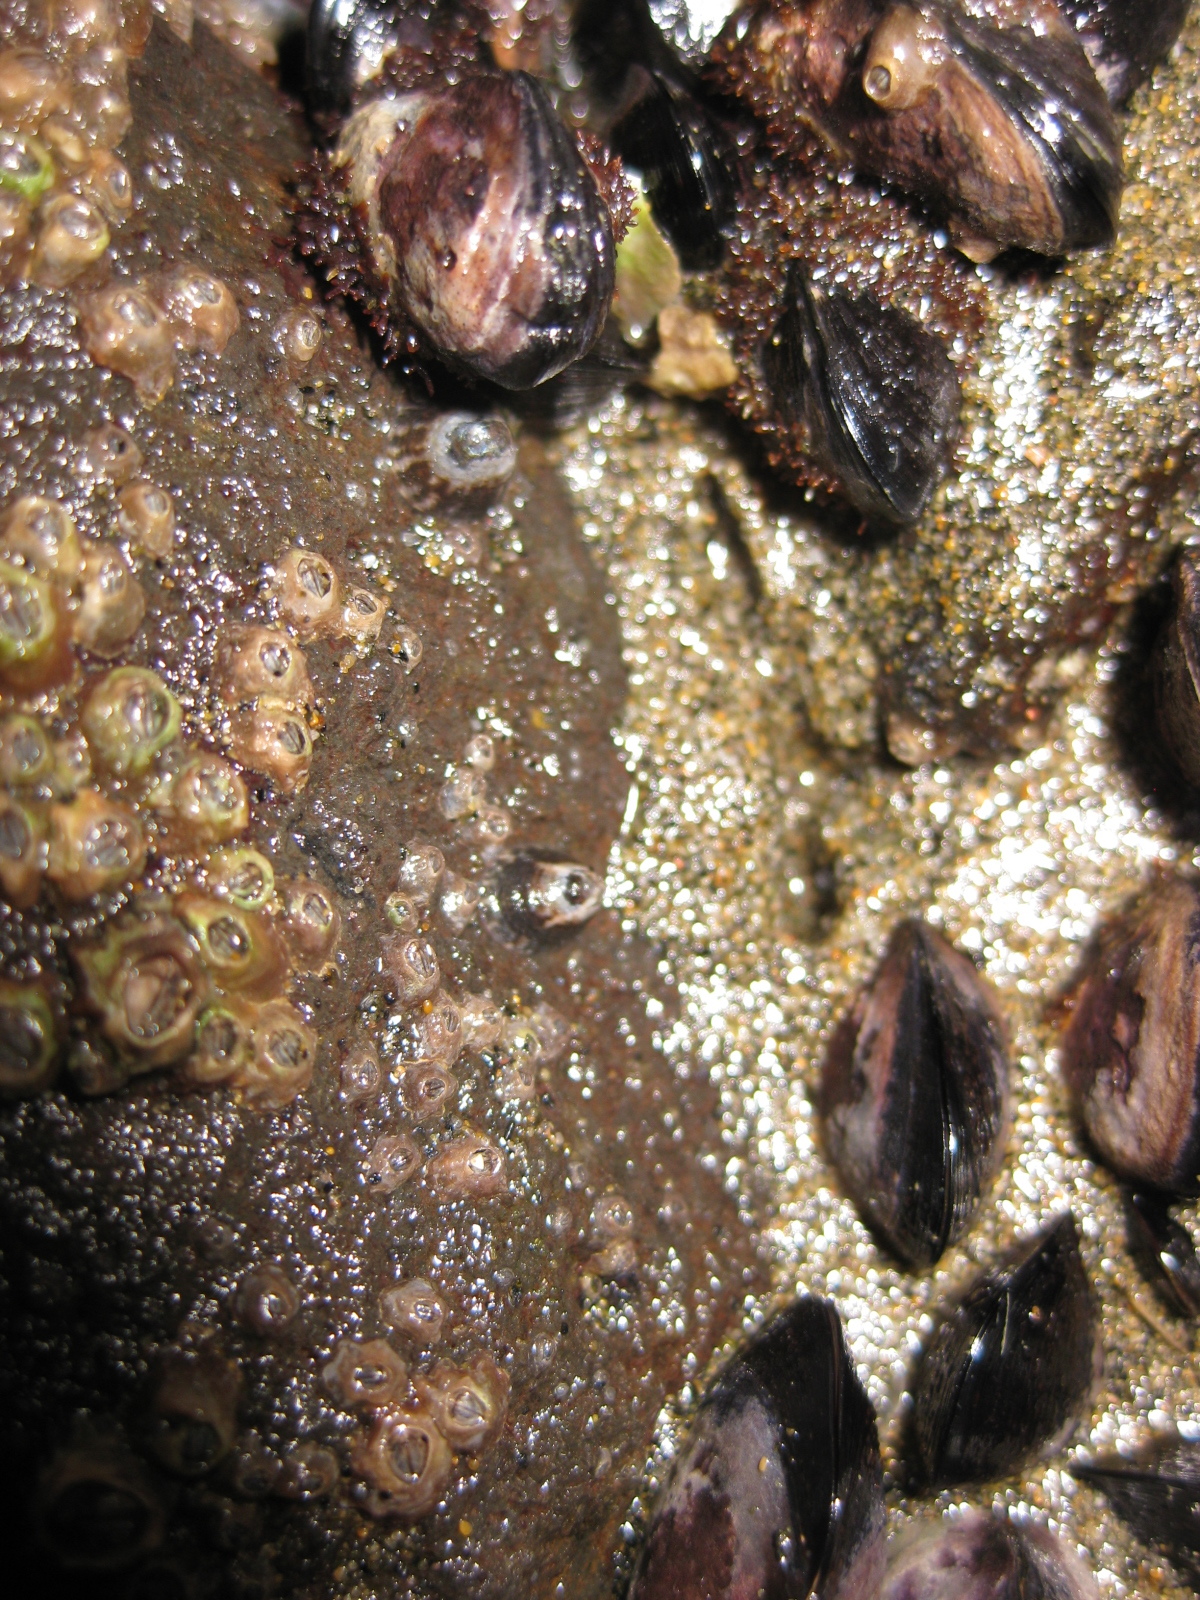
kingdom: Animalia
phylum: Mollusca
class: Gastropoda
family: Lottiidae
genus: Notoacmea
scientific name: Notoacmea parviconoidea
